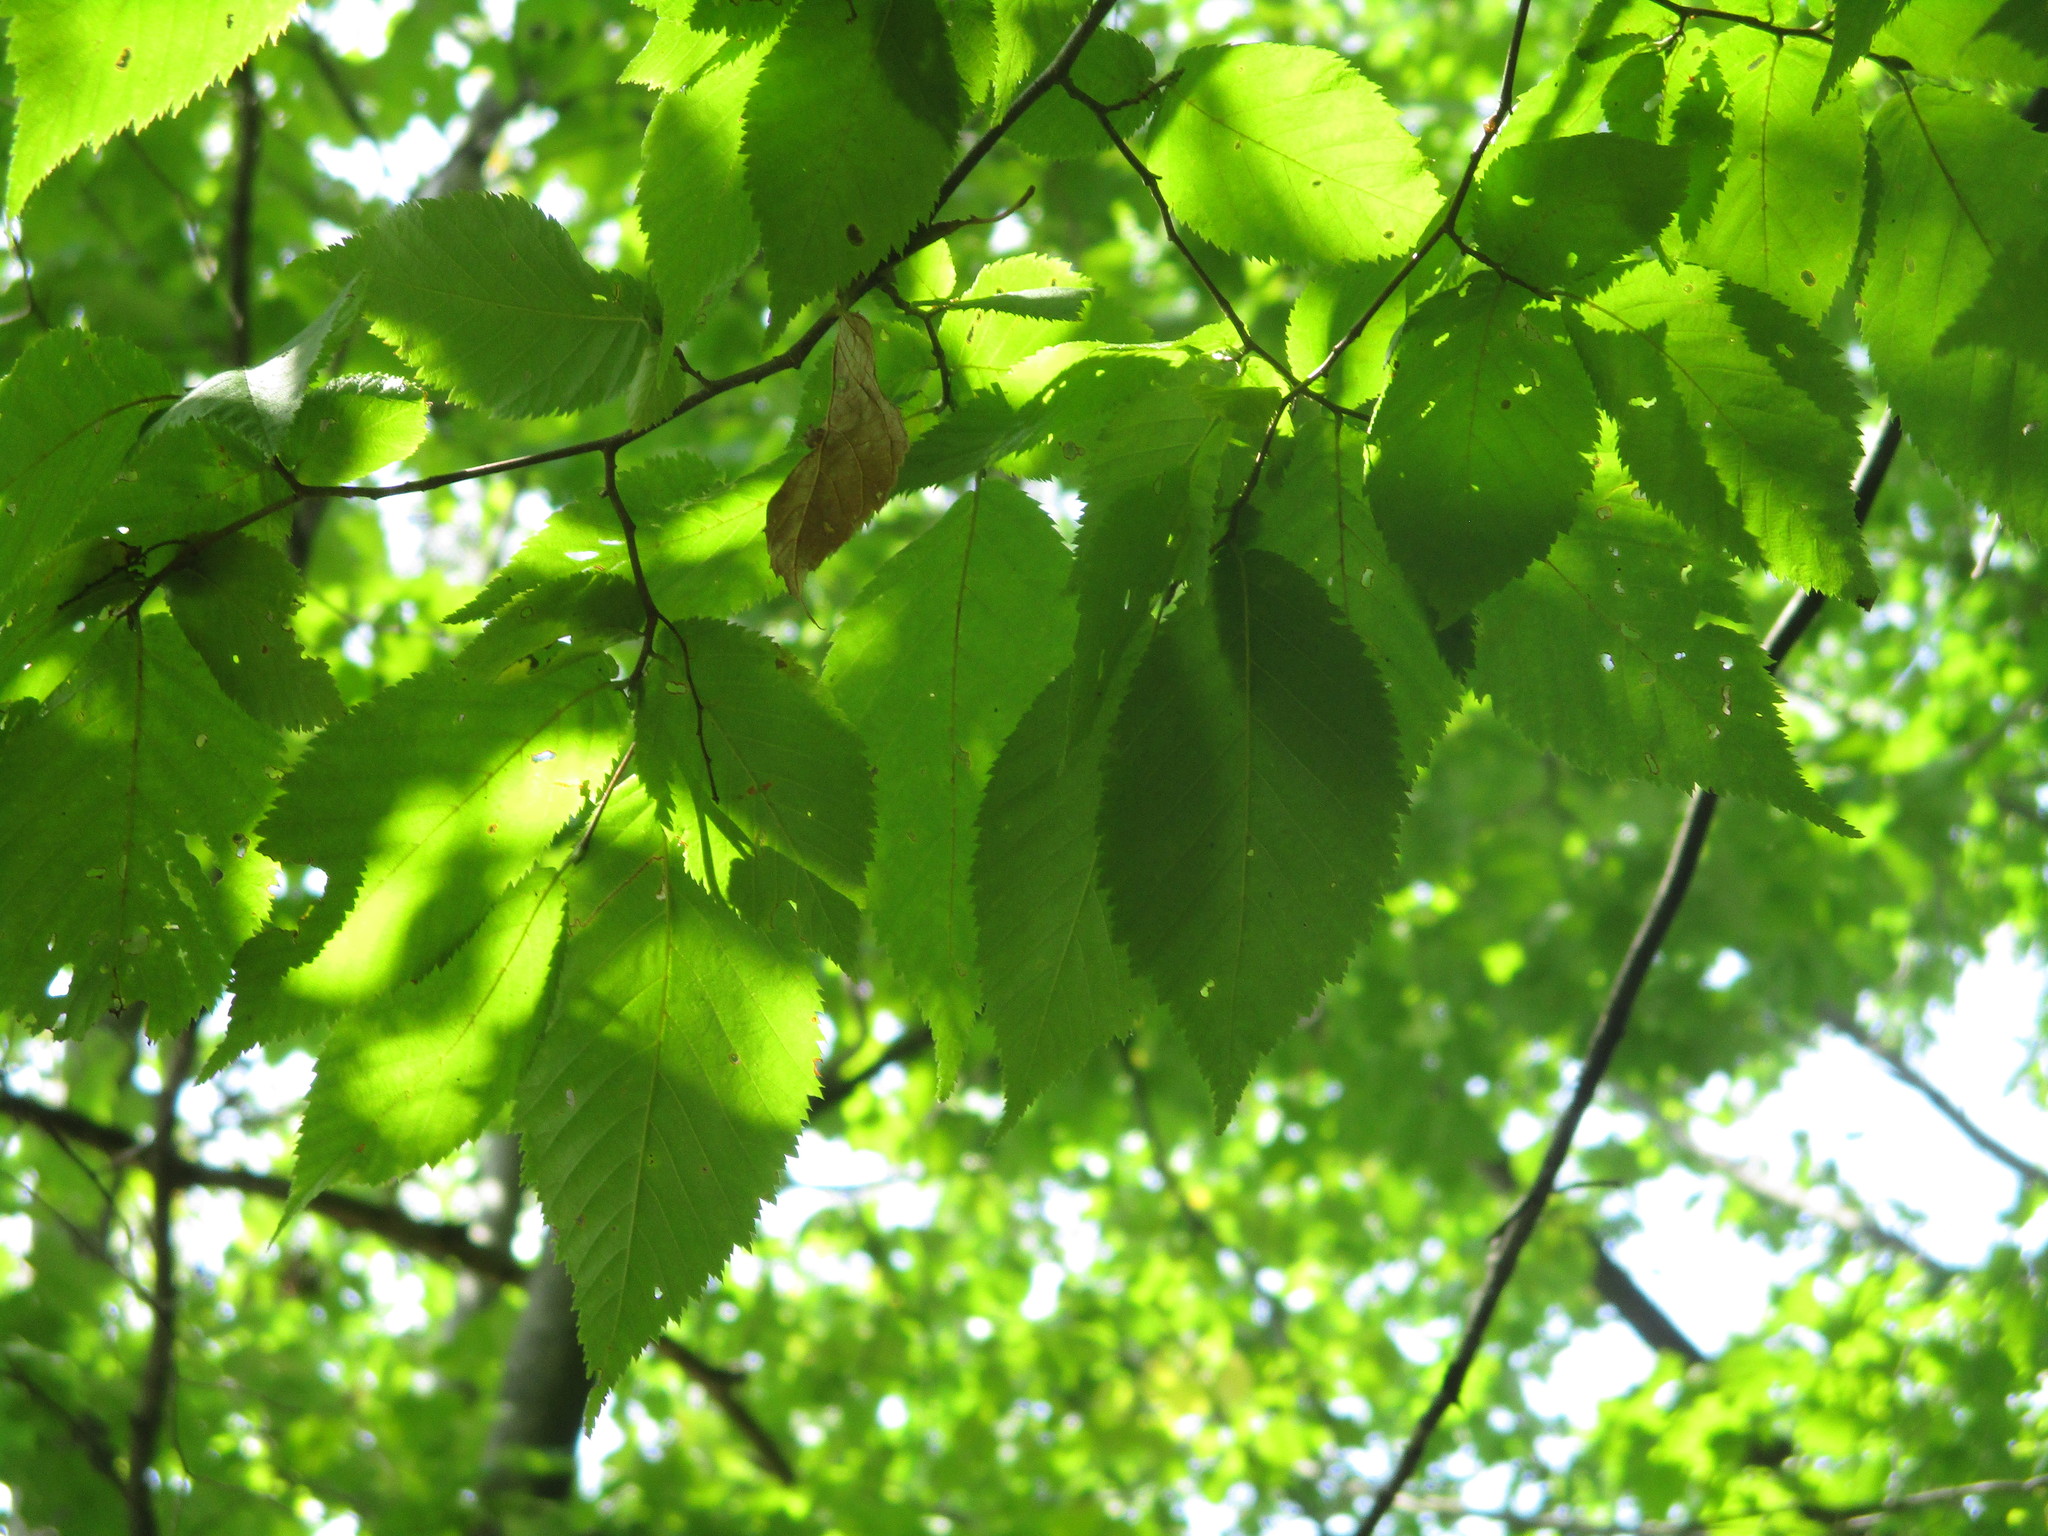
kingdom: Plantae
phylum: Tracheophyta
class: Magnoliopsida
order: Fagales
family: Betulaceae
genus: Ostrya
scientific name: Ostrya virginiana
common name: Ironwood
